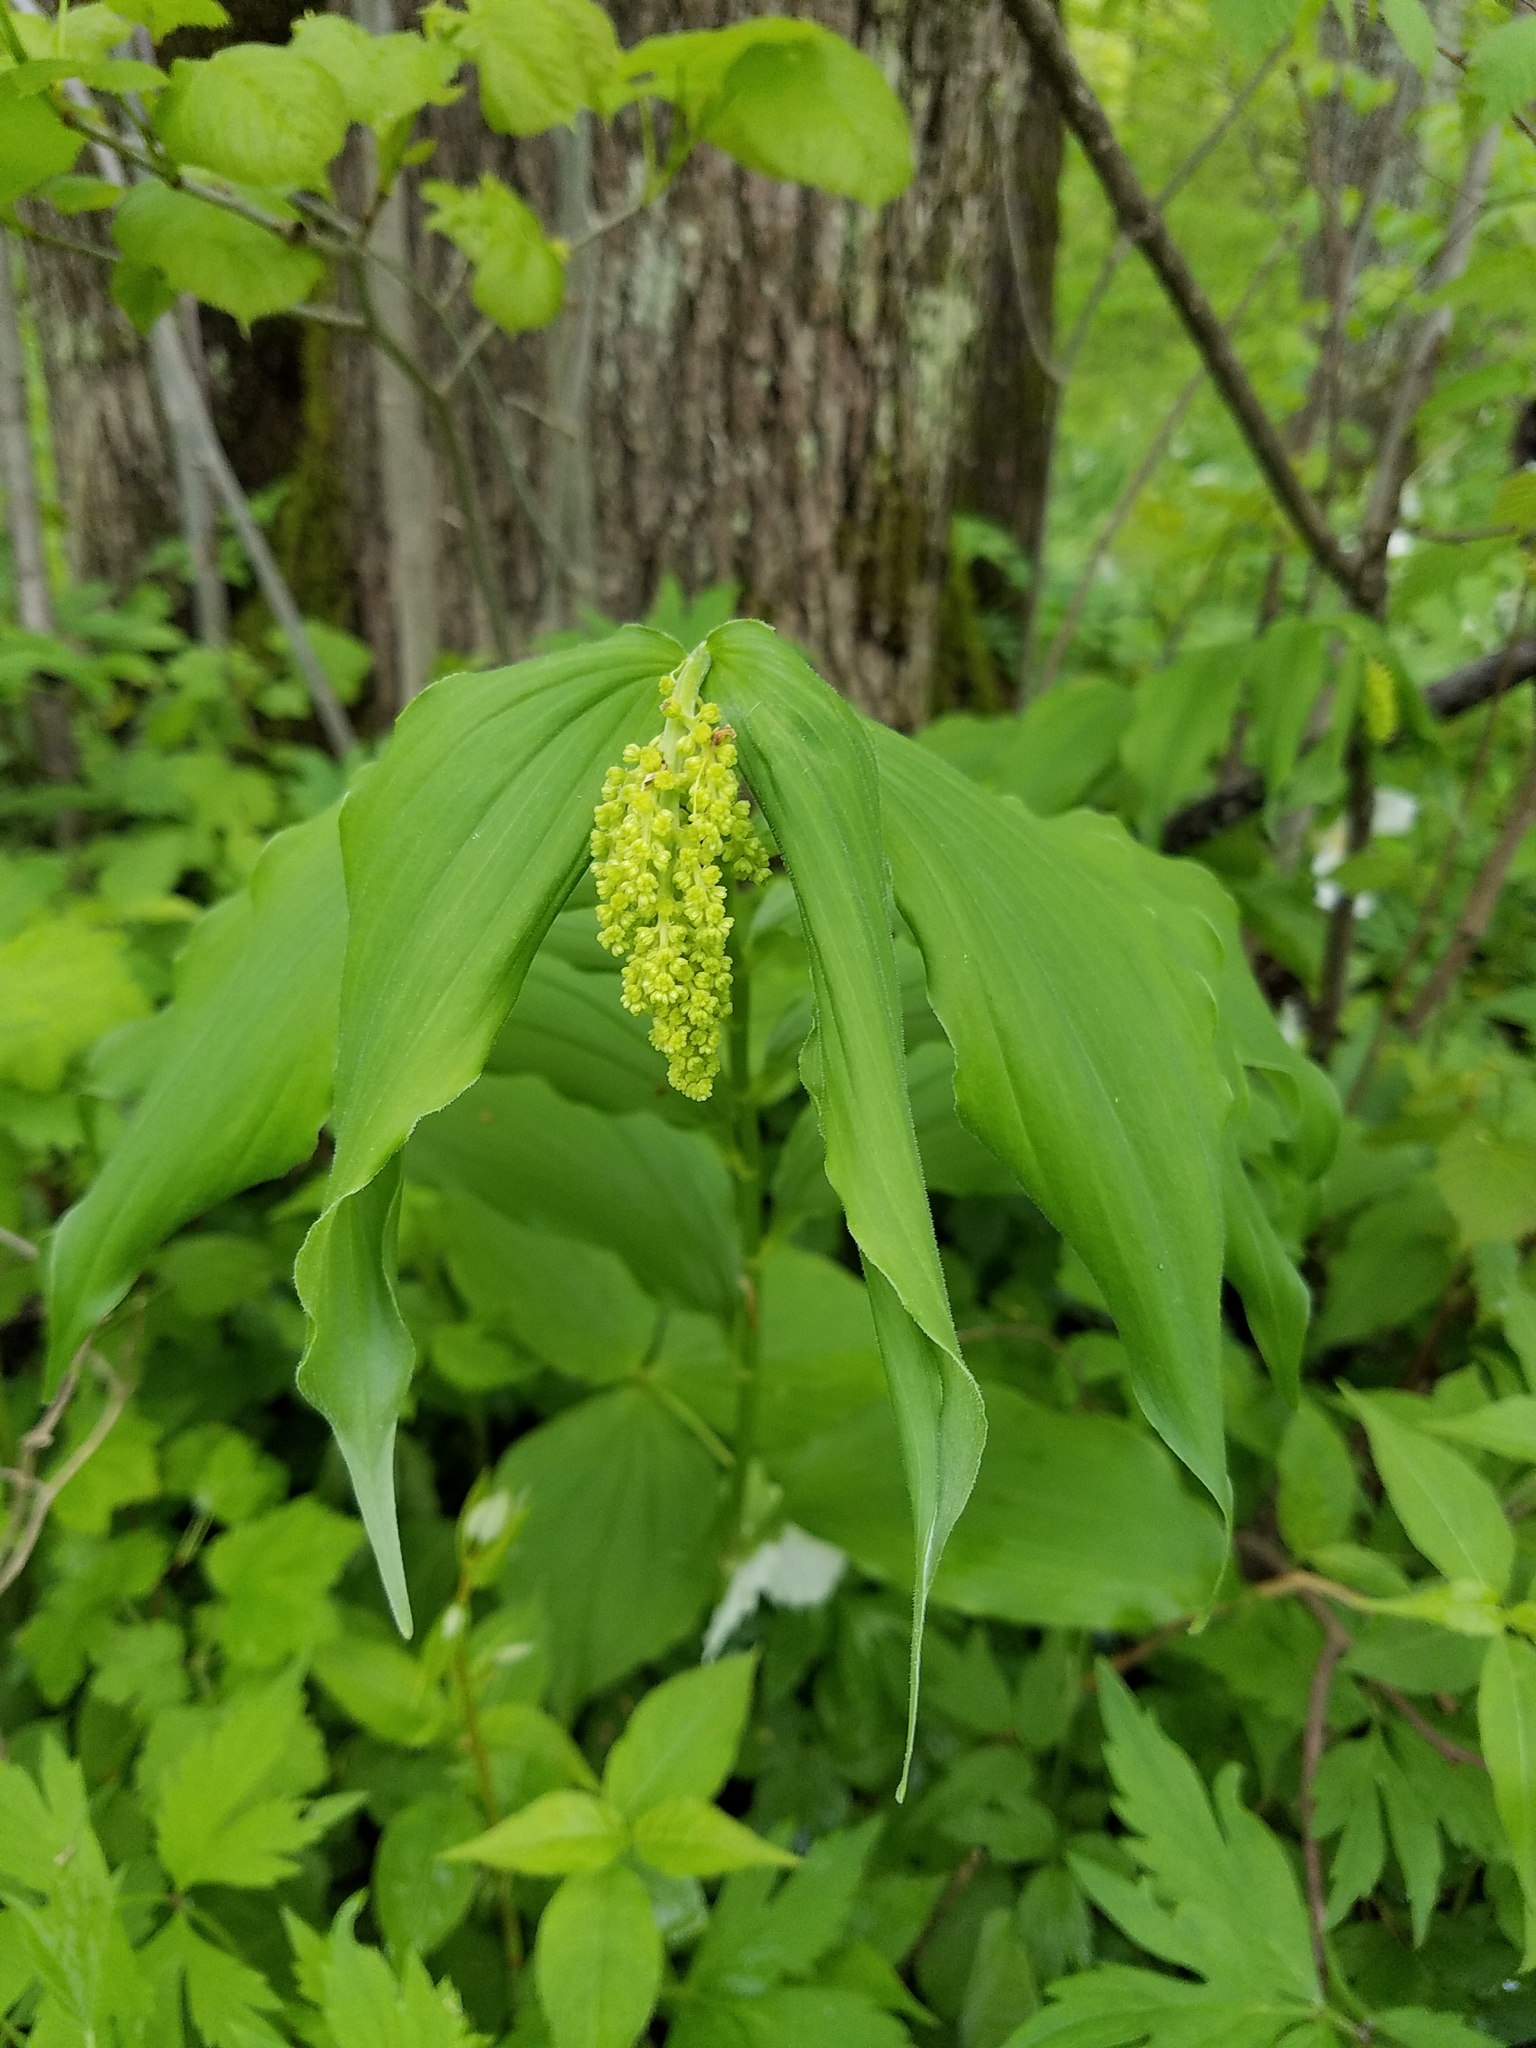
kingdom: Plantae
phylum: Tracheophyta
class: Liliopsida
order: Asparagales
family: Asparagaceae
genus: Maianthemum
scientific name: Maianthemum racemosum
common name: False spikenard
